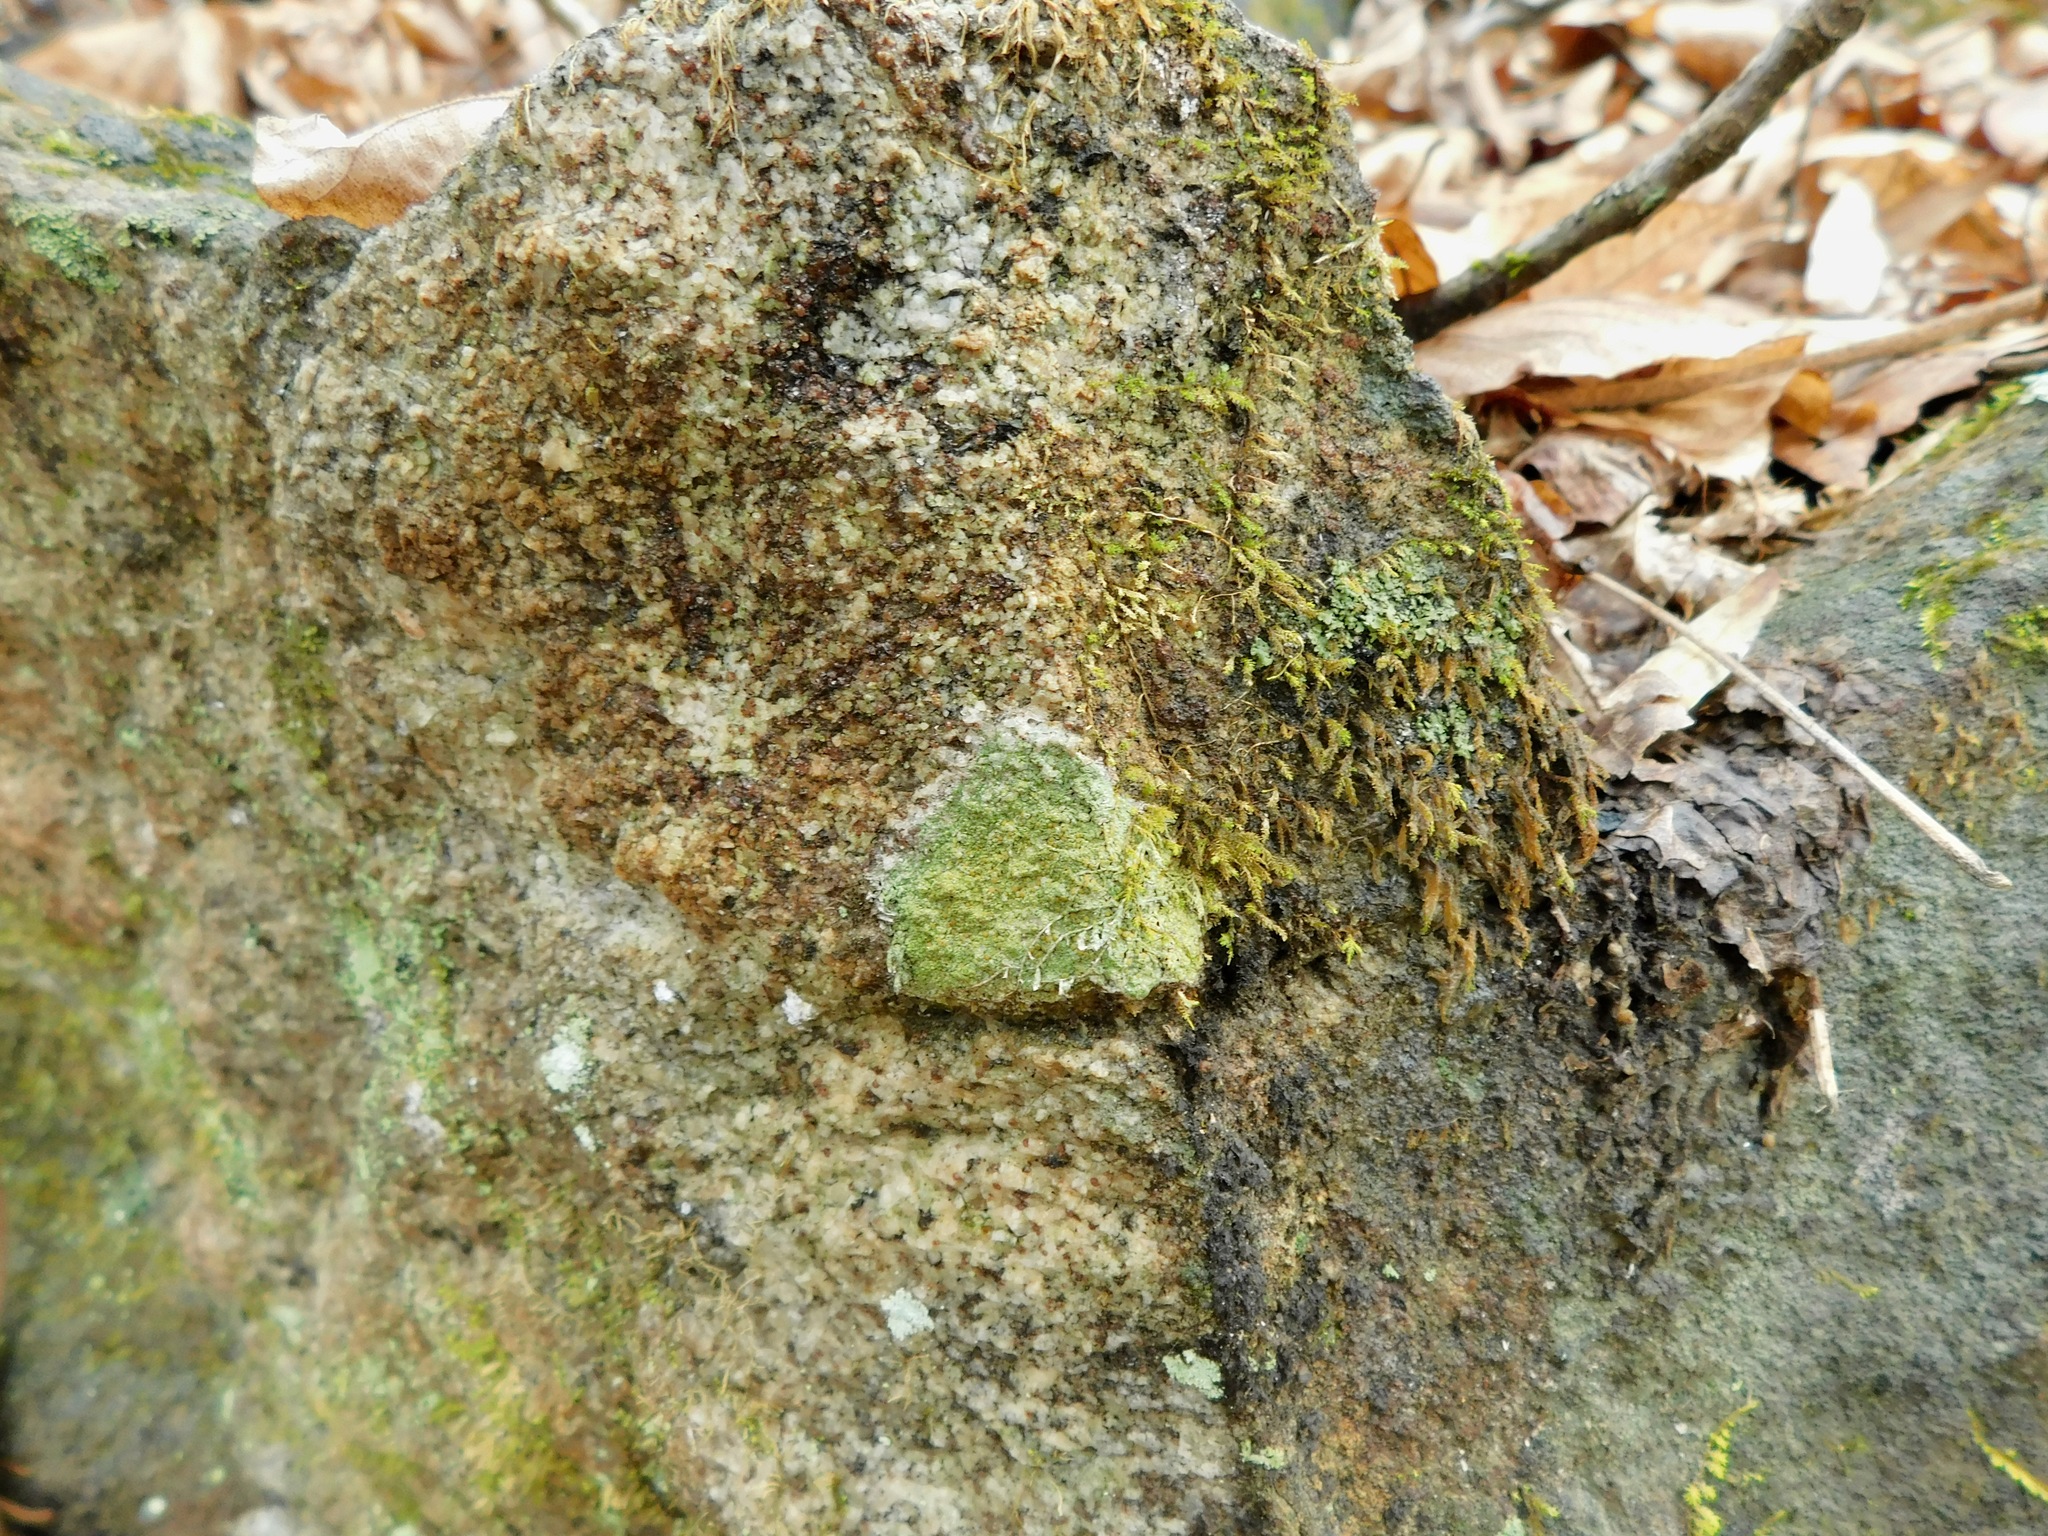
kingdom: Fungi
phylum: Ascomycota
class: Lecanoromycetes
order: Lecanorales
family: Lecanoraceae
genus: Lecanora
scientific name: Lecanora strobilina
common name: Mealy rim-lichen
